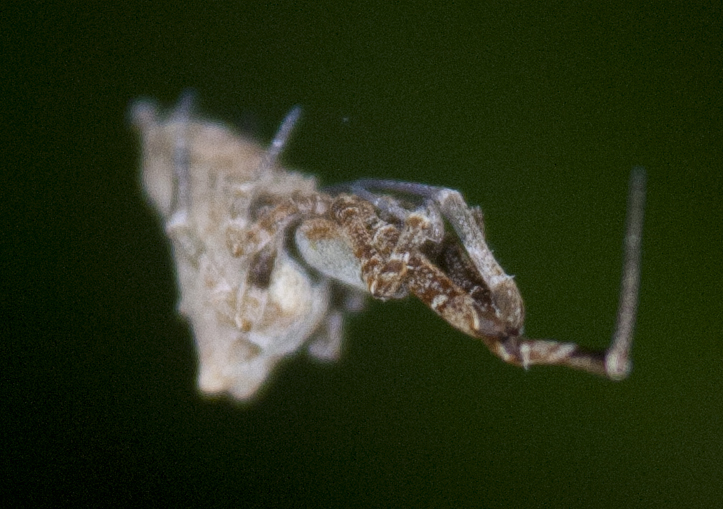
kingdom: Animalia
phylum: Arthropoda
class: Arachnida
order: Araneae
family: Uloboridae
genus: Philoponella
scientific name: Philoponella congregabilis
